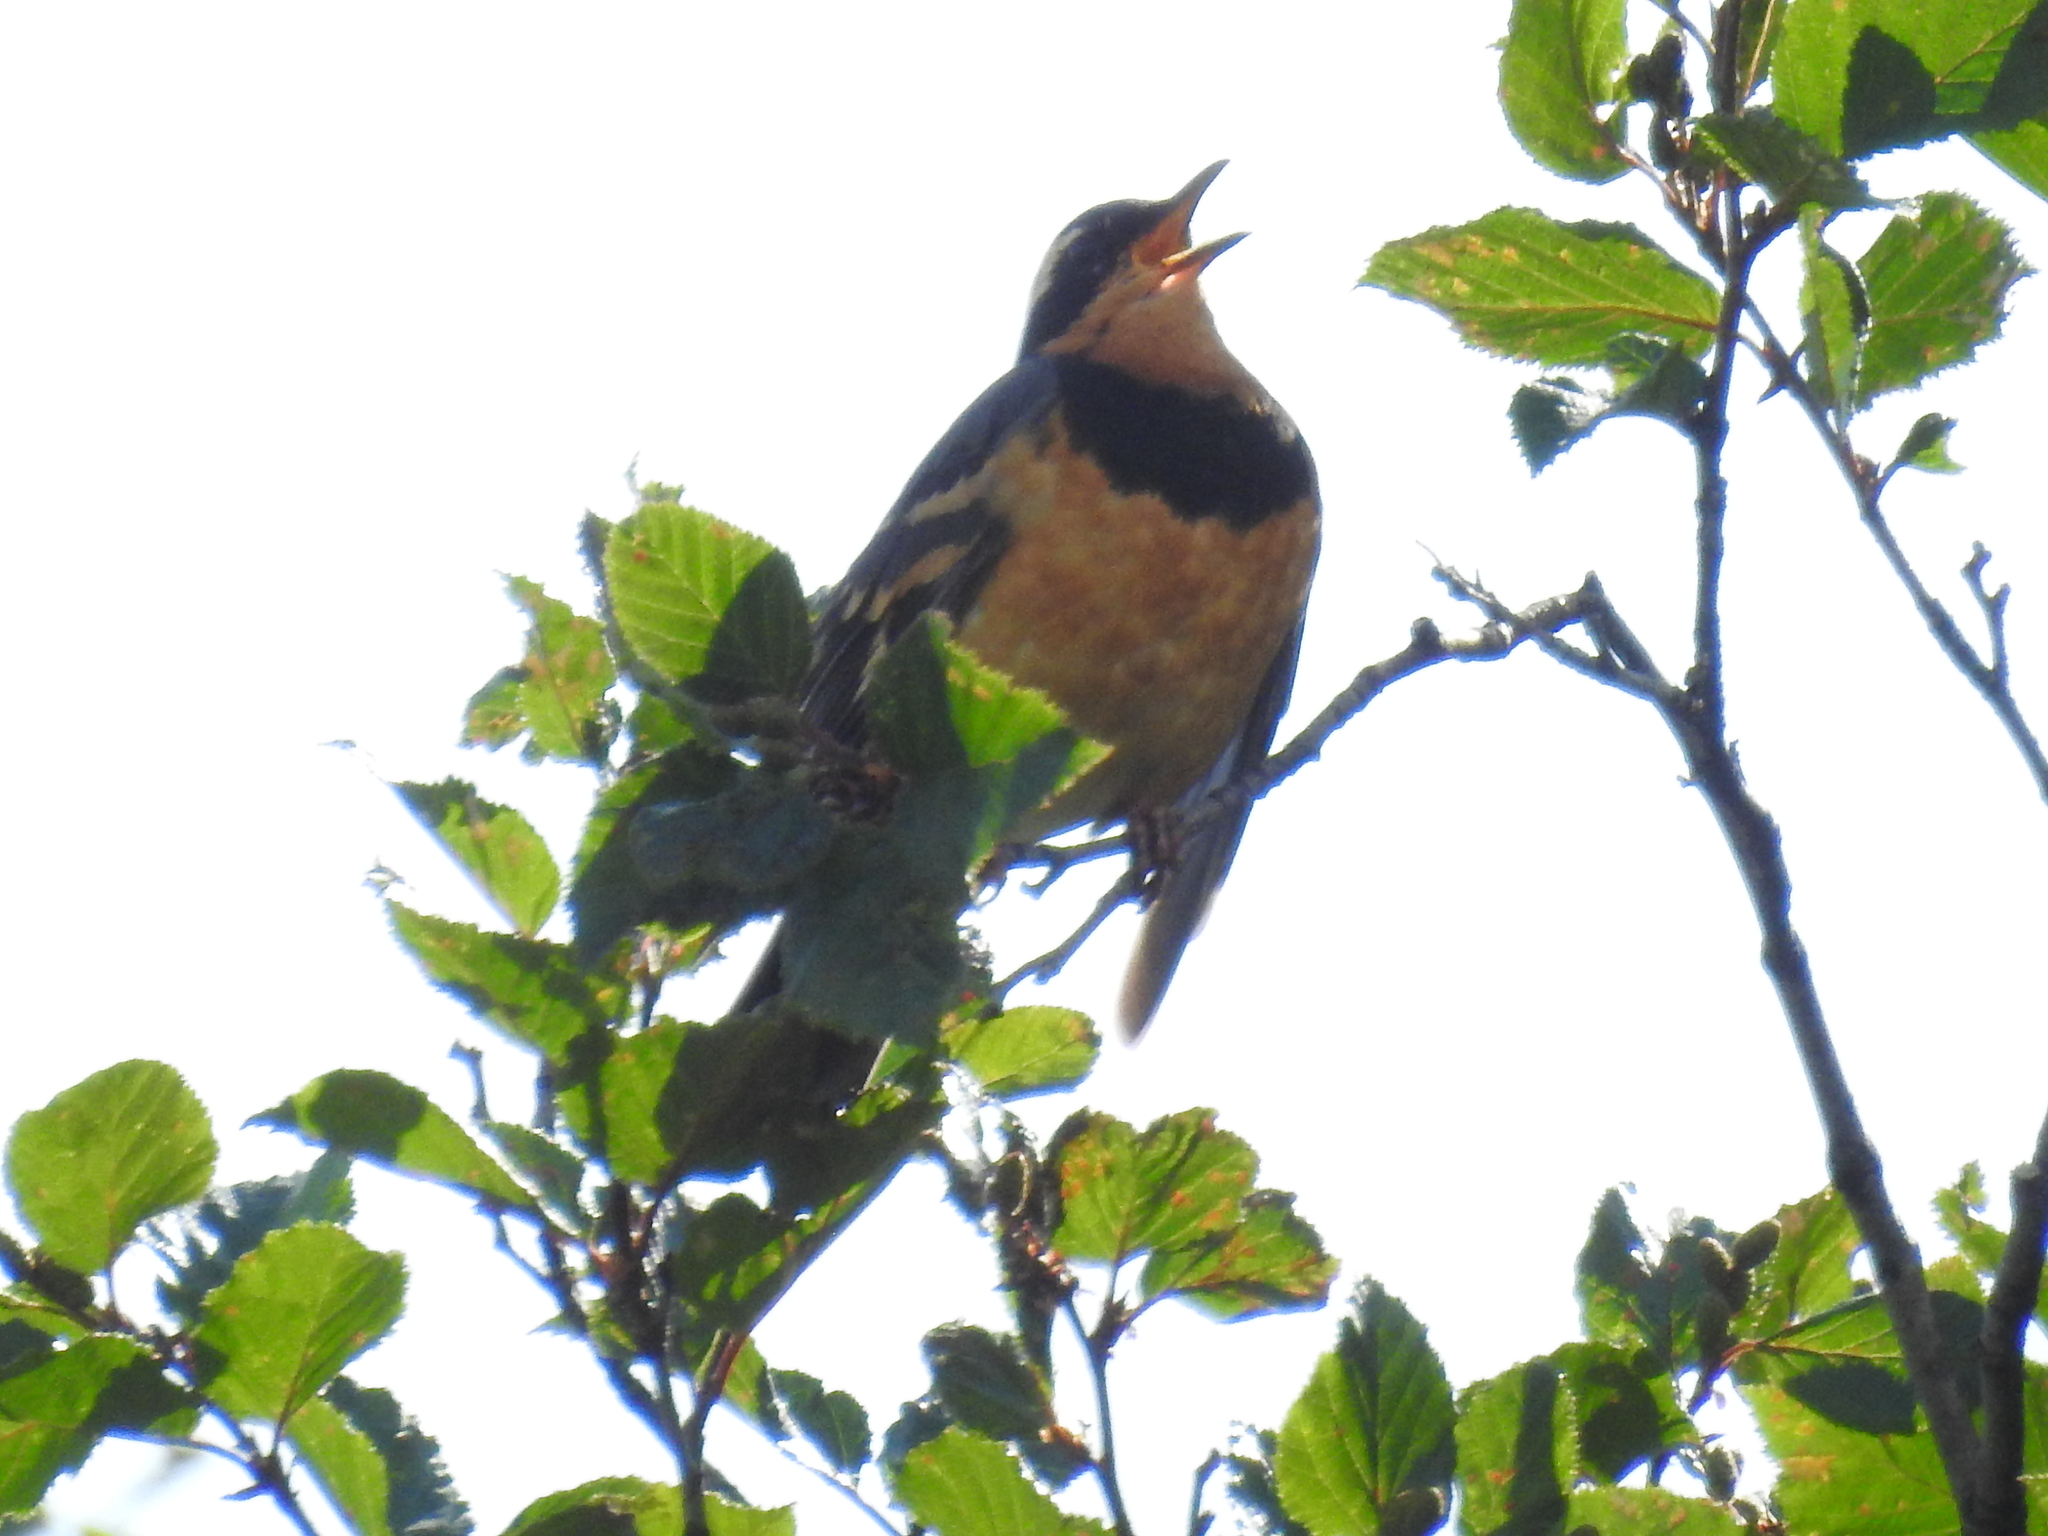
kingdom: Animalia
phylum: Chordata
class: Aves
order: Passeriformes
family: Turdidae
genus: Ixoreus
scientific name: Ixoreus naevius
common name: Varied thrush
